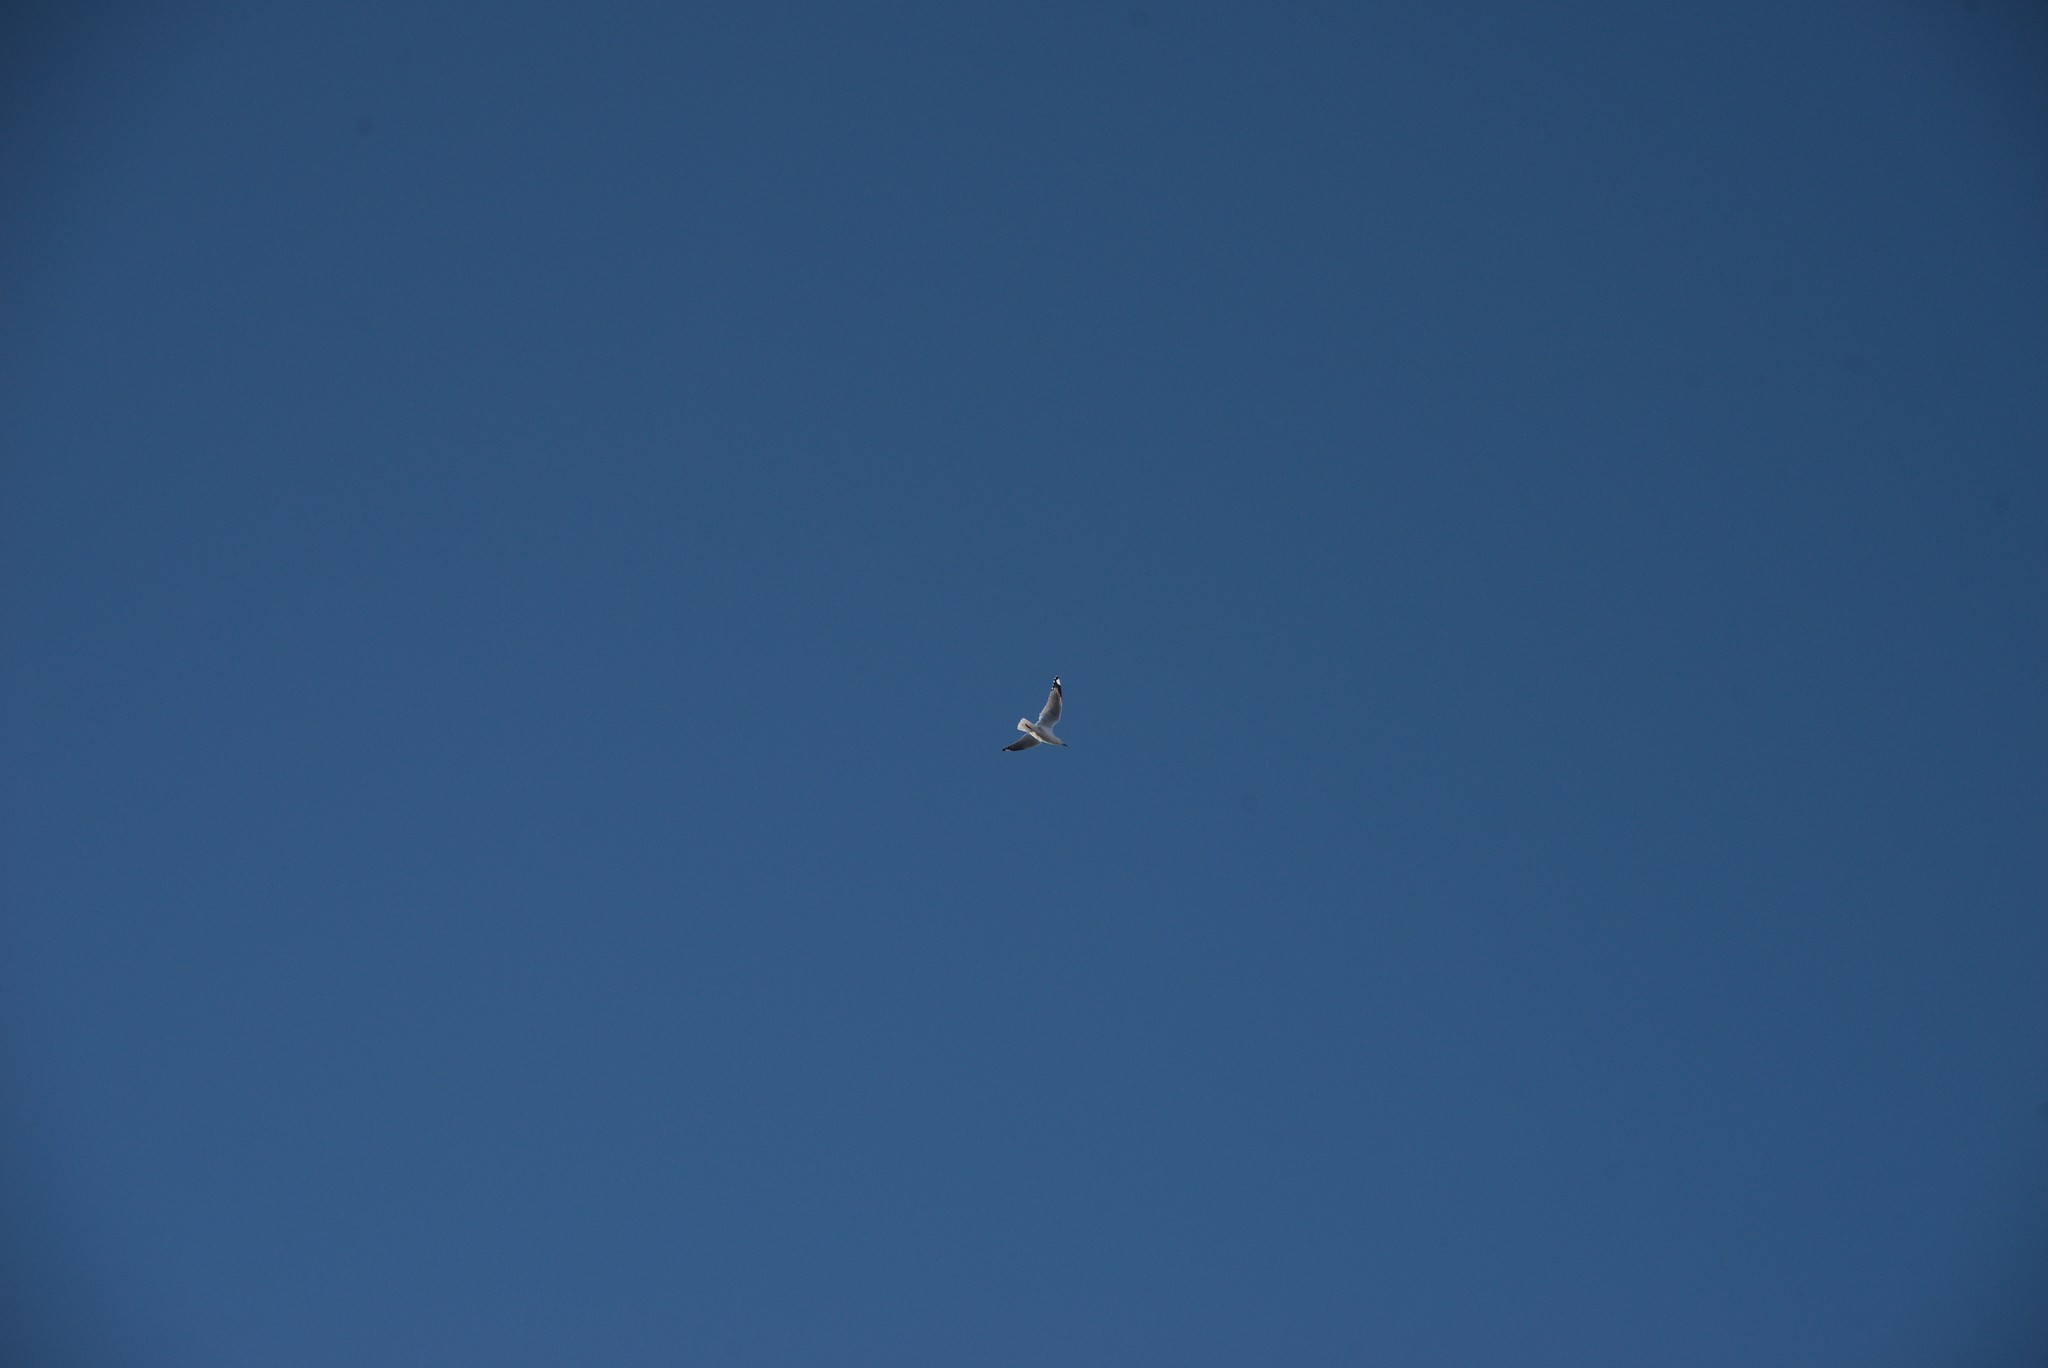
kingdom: Animalia
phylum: Chordata
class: Aves
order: Charadriiformes
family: Laridae
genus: Chroicocephalus
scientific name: Chroicocephalus novaehollandiae
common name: Silver gull
